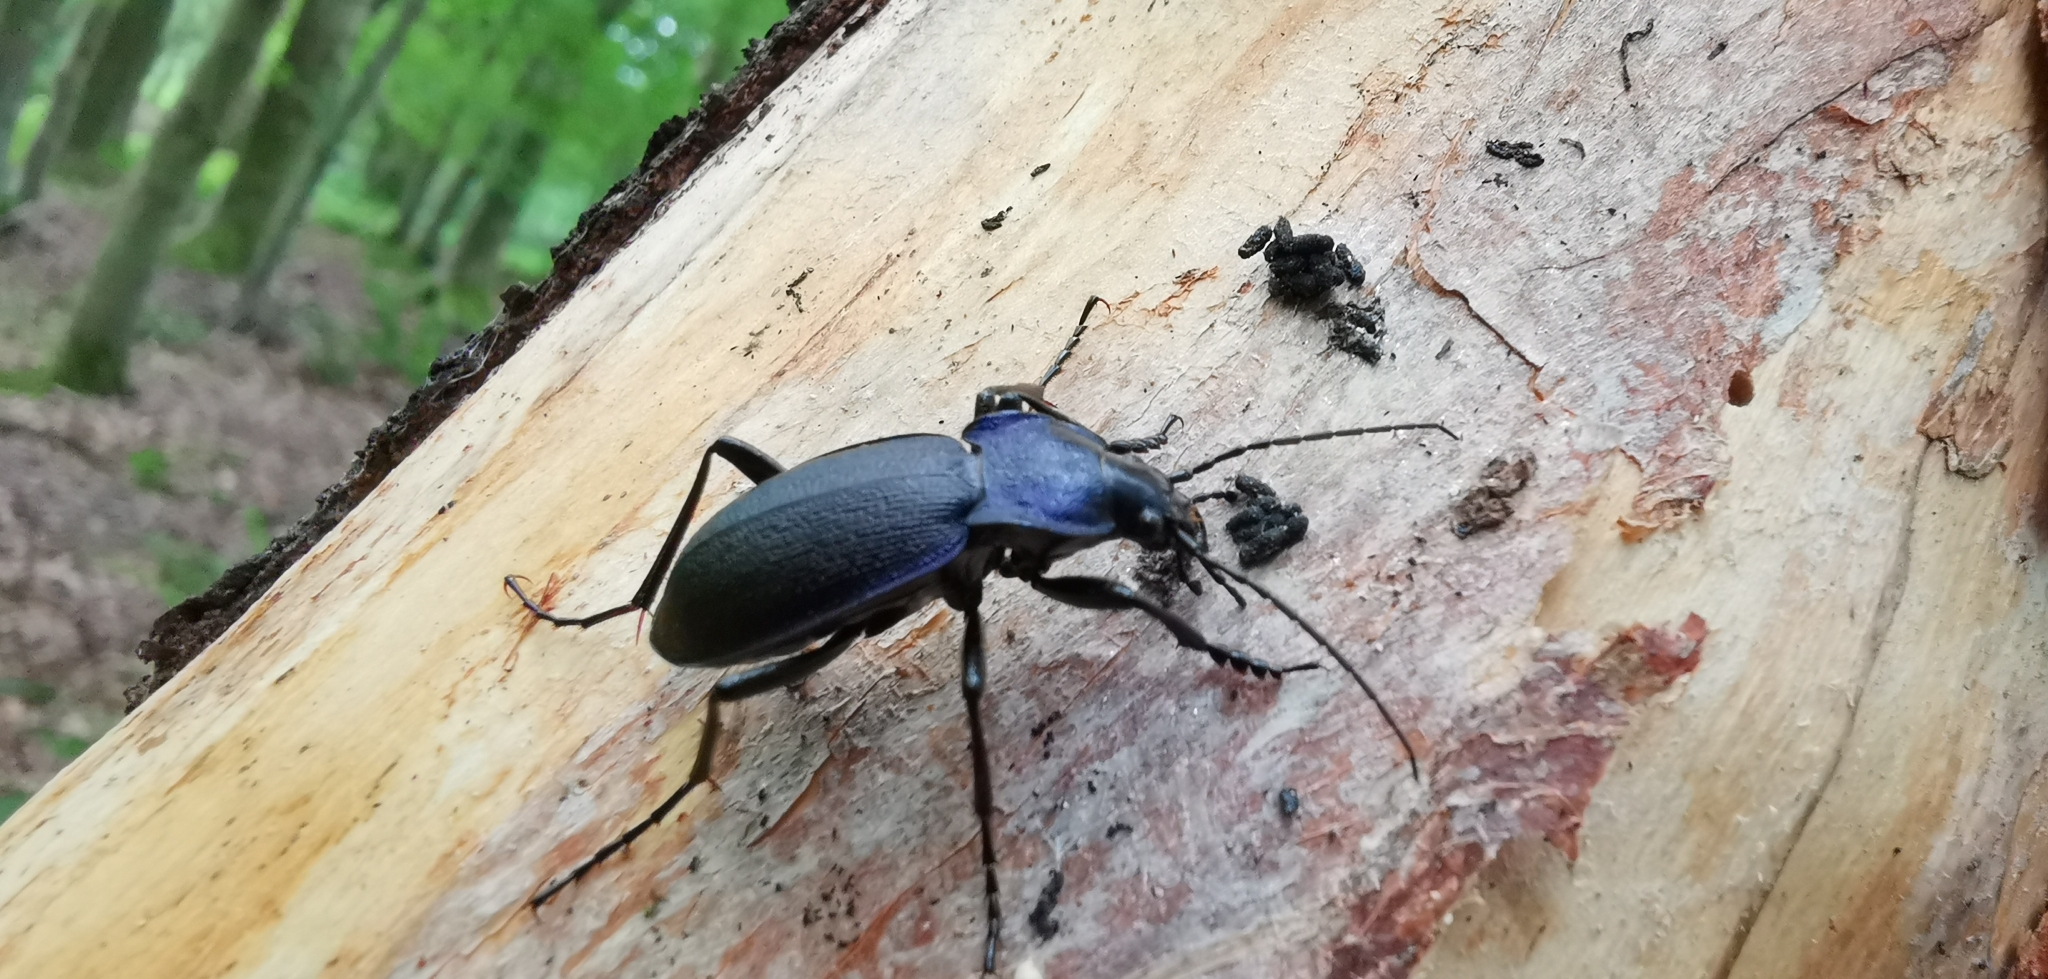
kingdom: Animalia
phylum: Arthropoda
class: Insecta
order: Coleoptera
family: Carabidae
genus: Carabus
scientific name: Carabus problematicus
